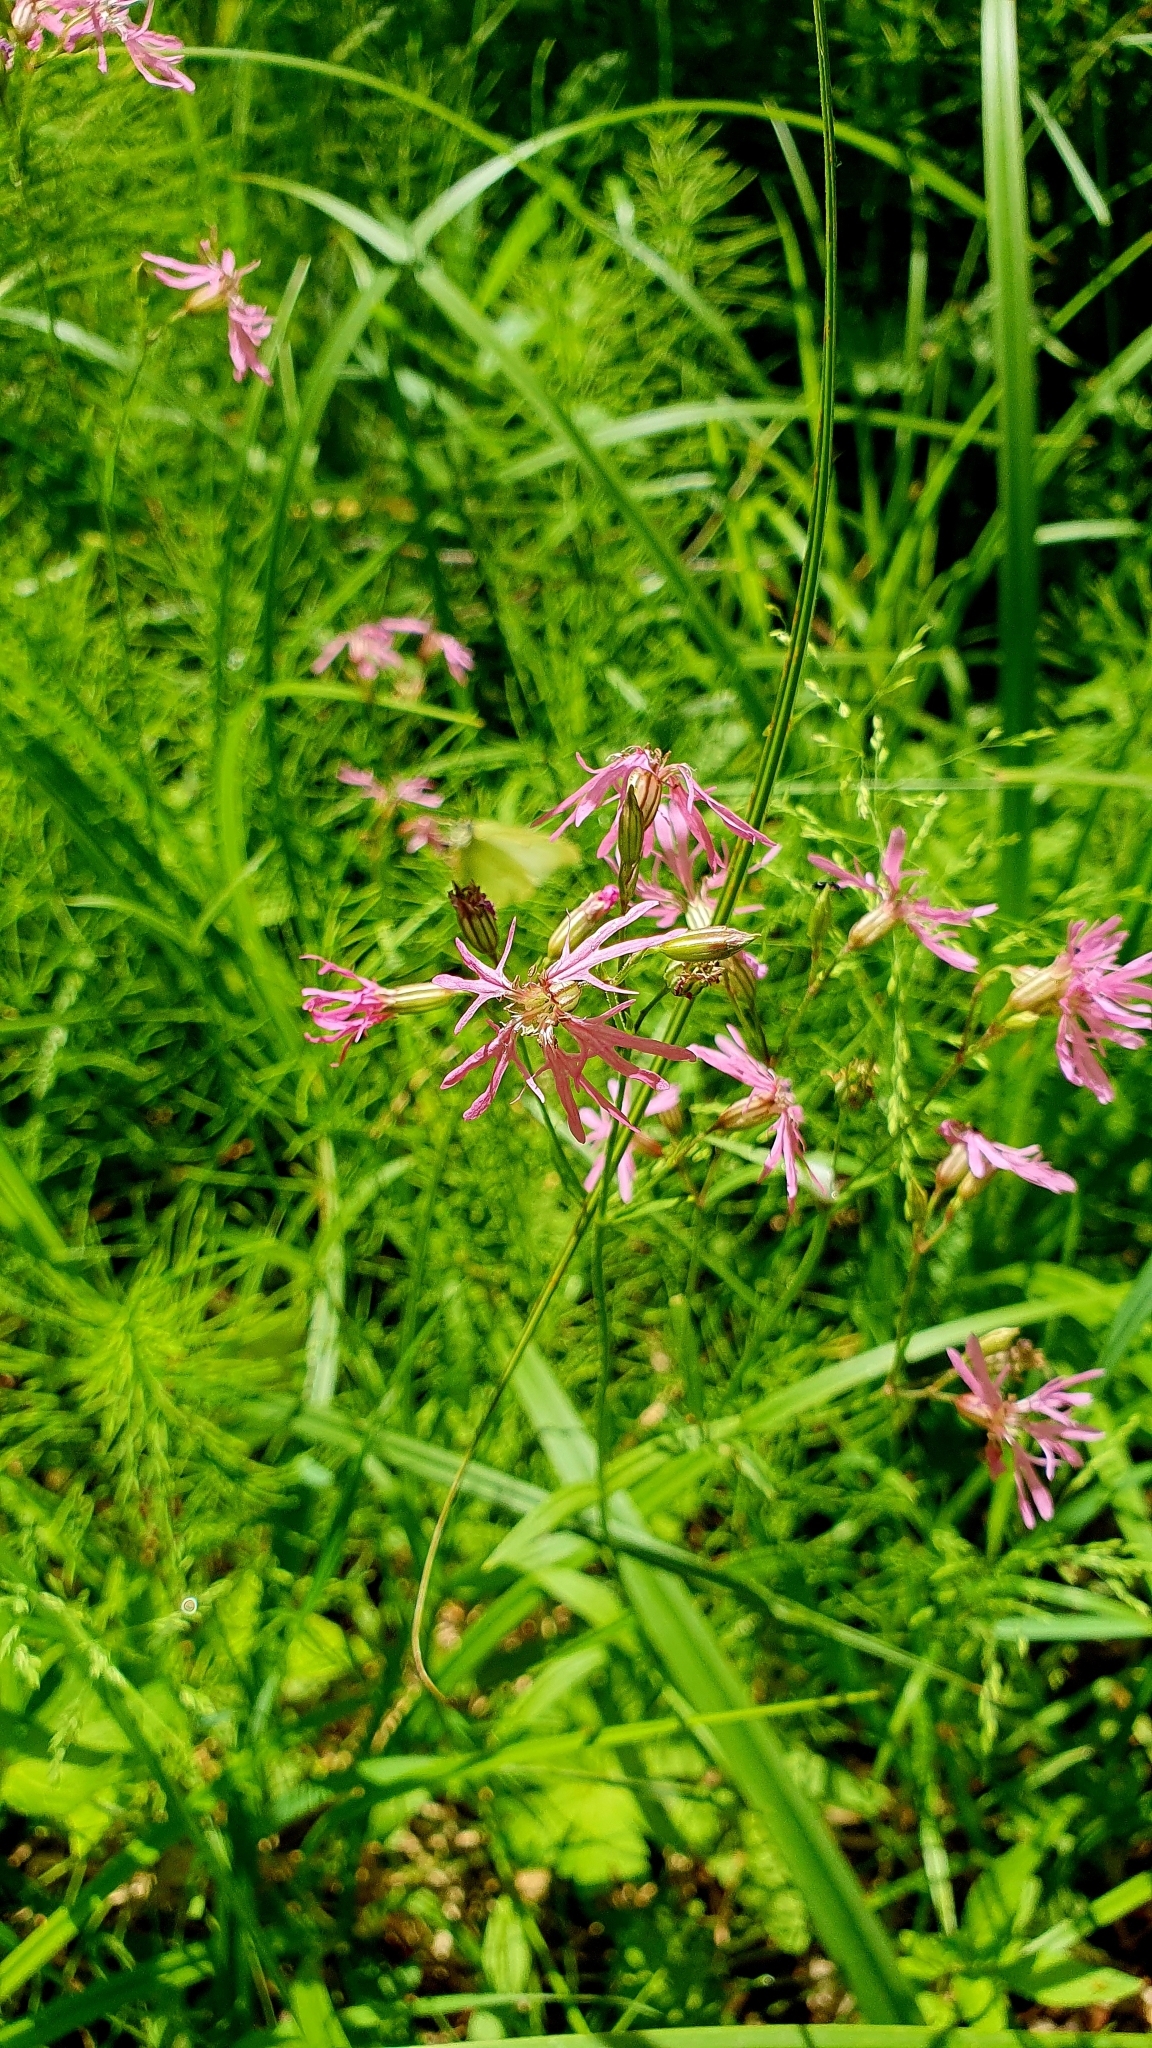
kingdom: Plantae
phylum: Tracheophyta
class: Magnoliopsida
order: Caryophyllales
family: Caryophyllaceae
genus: Silene
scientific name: Silene flos-cuculi
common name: Ragged-robin
